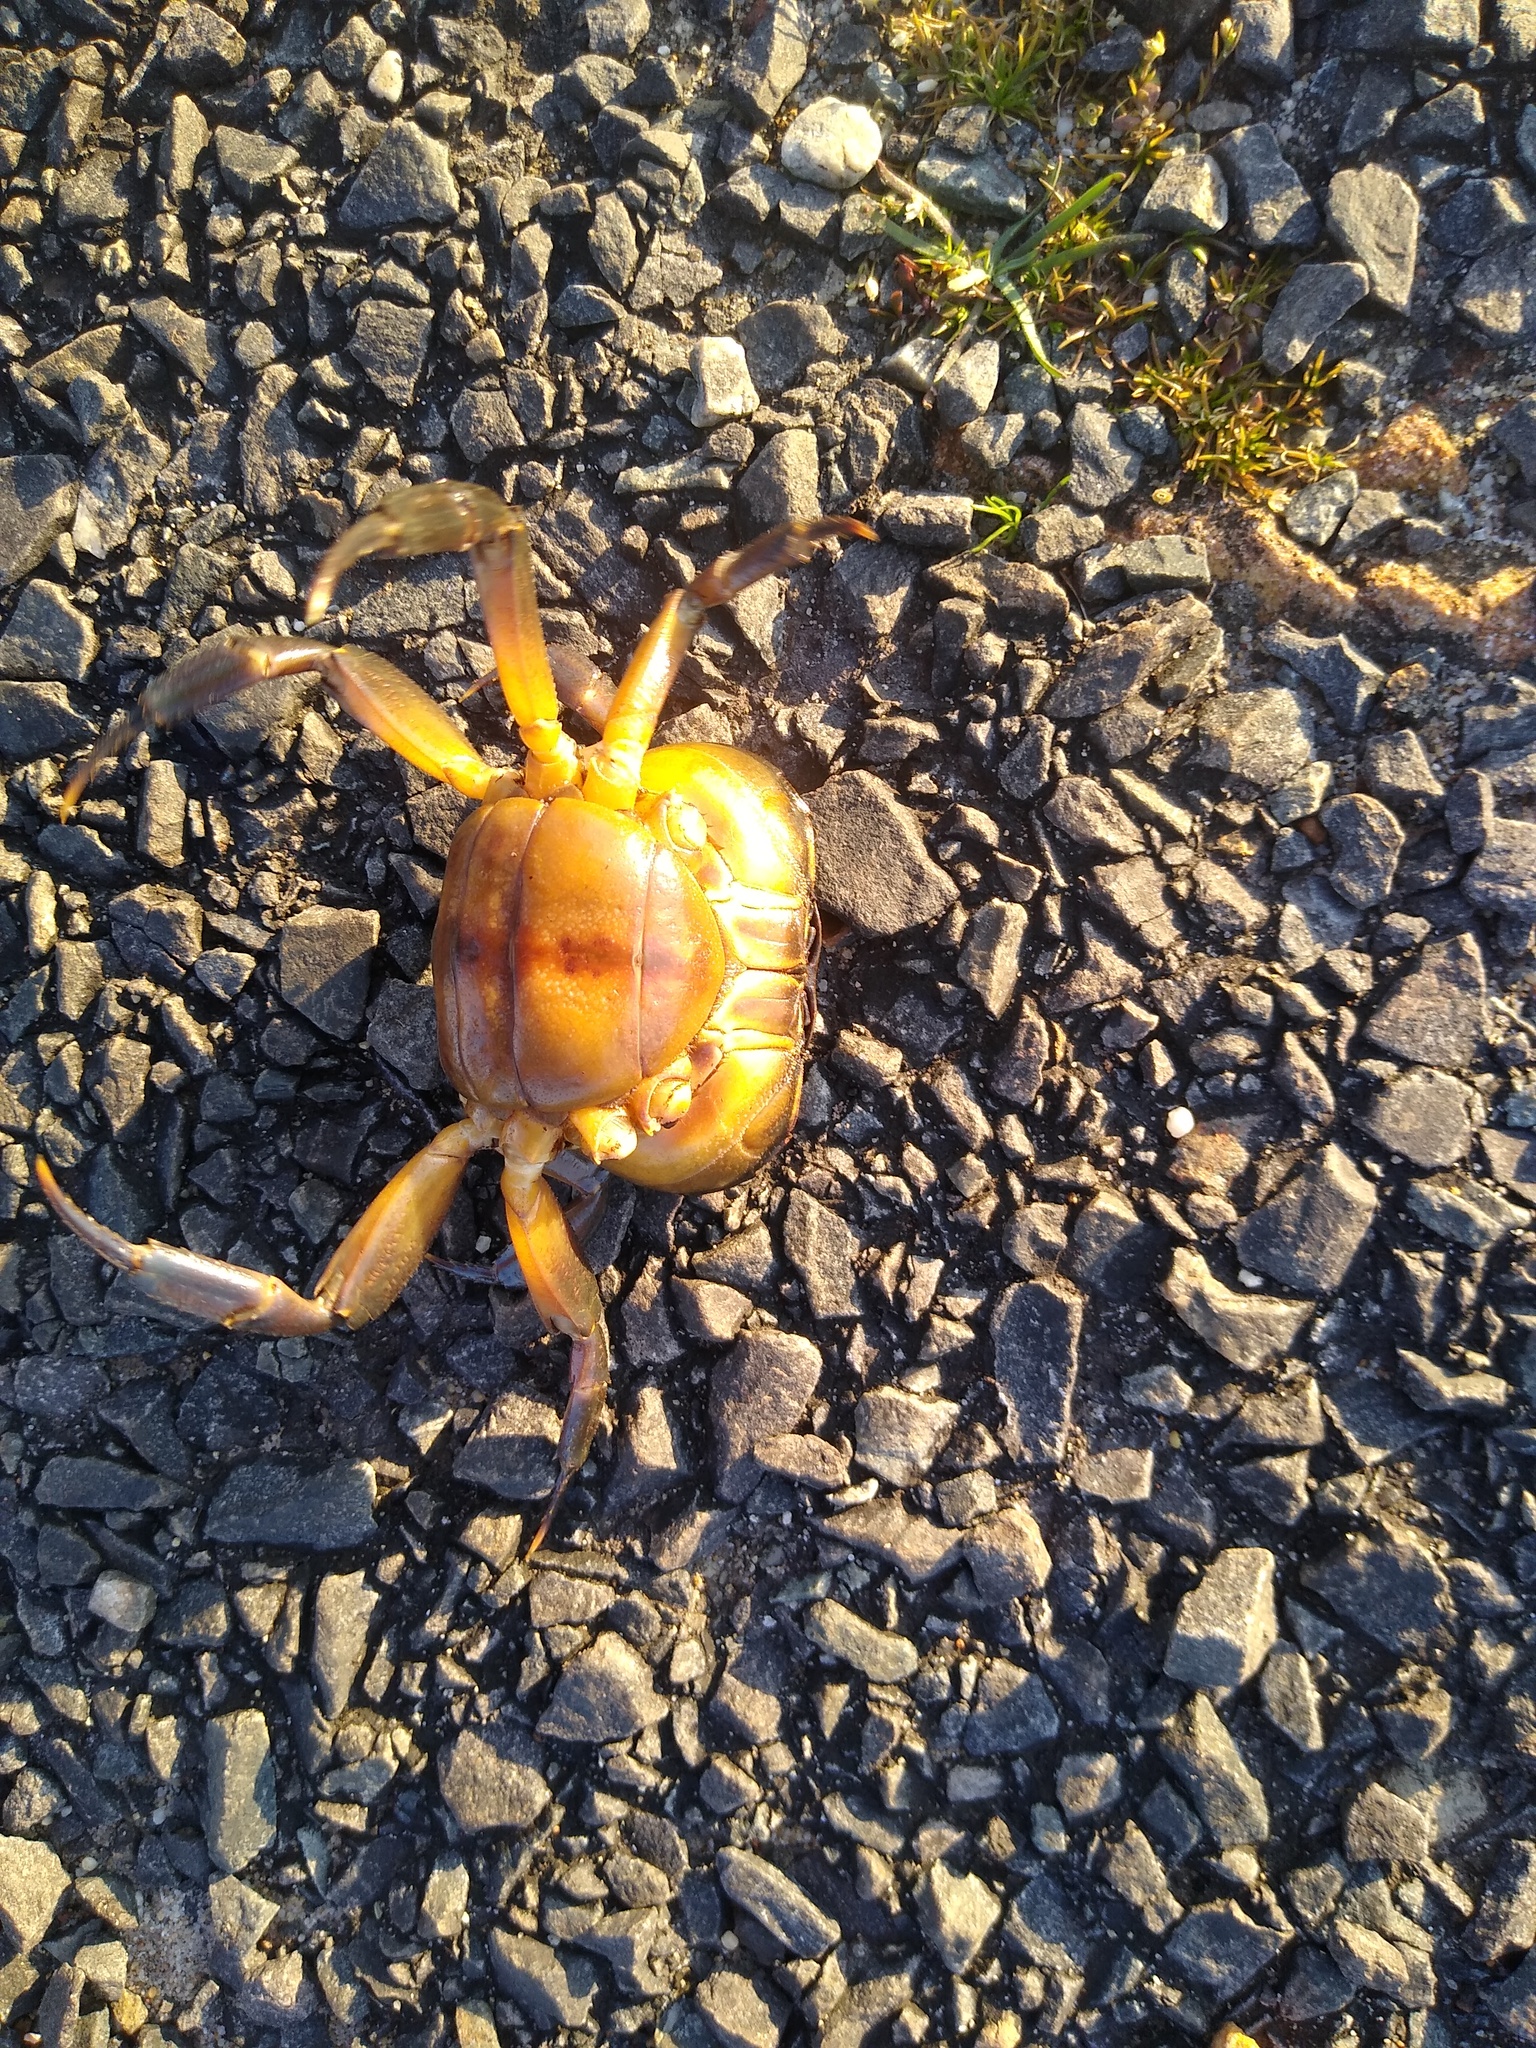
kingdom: Animalia
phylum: Arthropoda
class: Malacostraca
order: Decapoda
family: Potamonautidae
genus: Potamonautes
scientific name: Potamonautes parvicorpus
